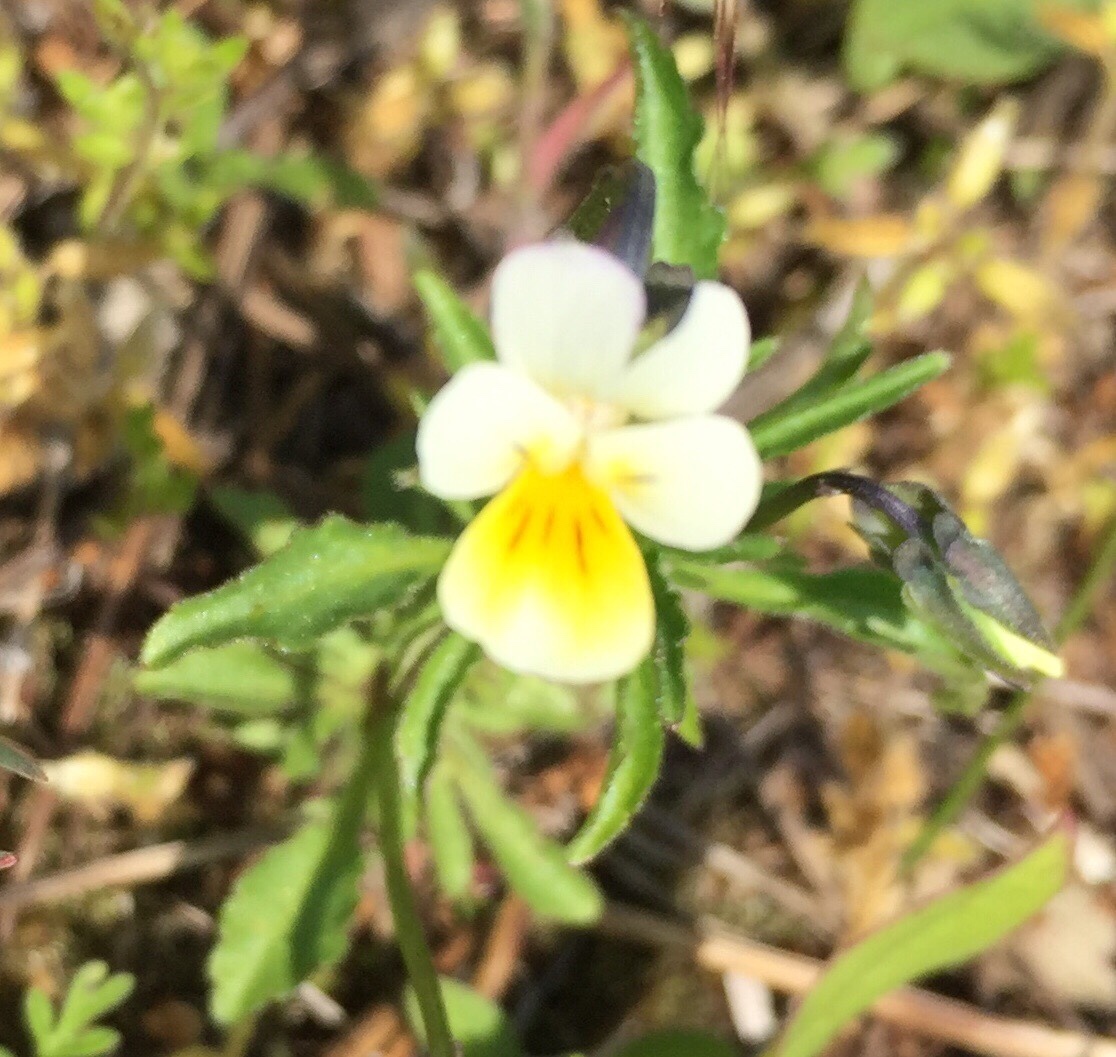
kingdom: Plantae
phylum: Tracheophyta
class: Magnoliopsida
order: Malpighiales
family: Violaceae
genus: Viola
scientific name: Viola arvensis
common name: Field pansy
